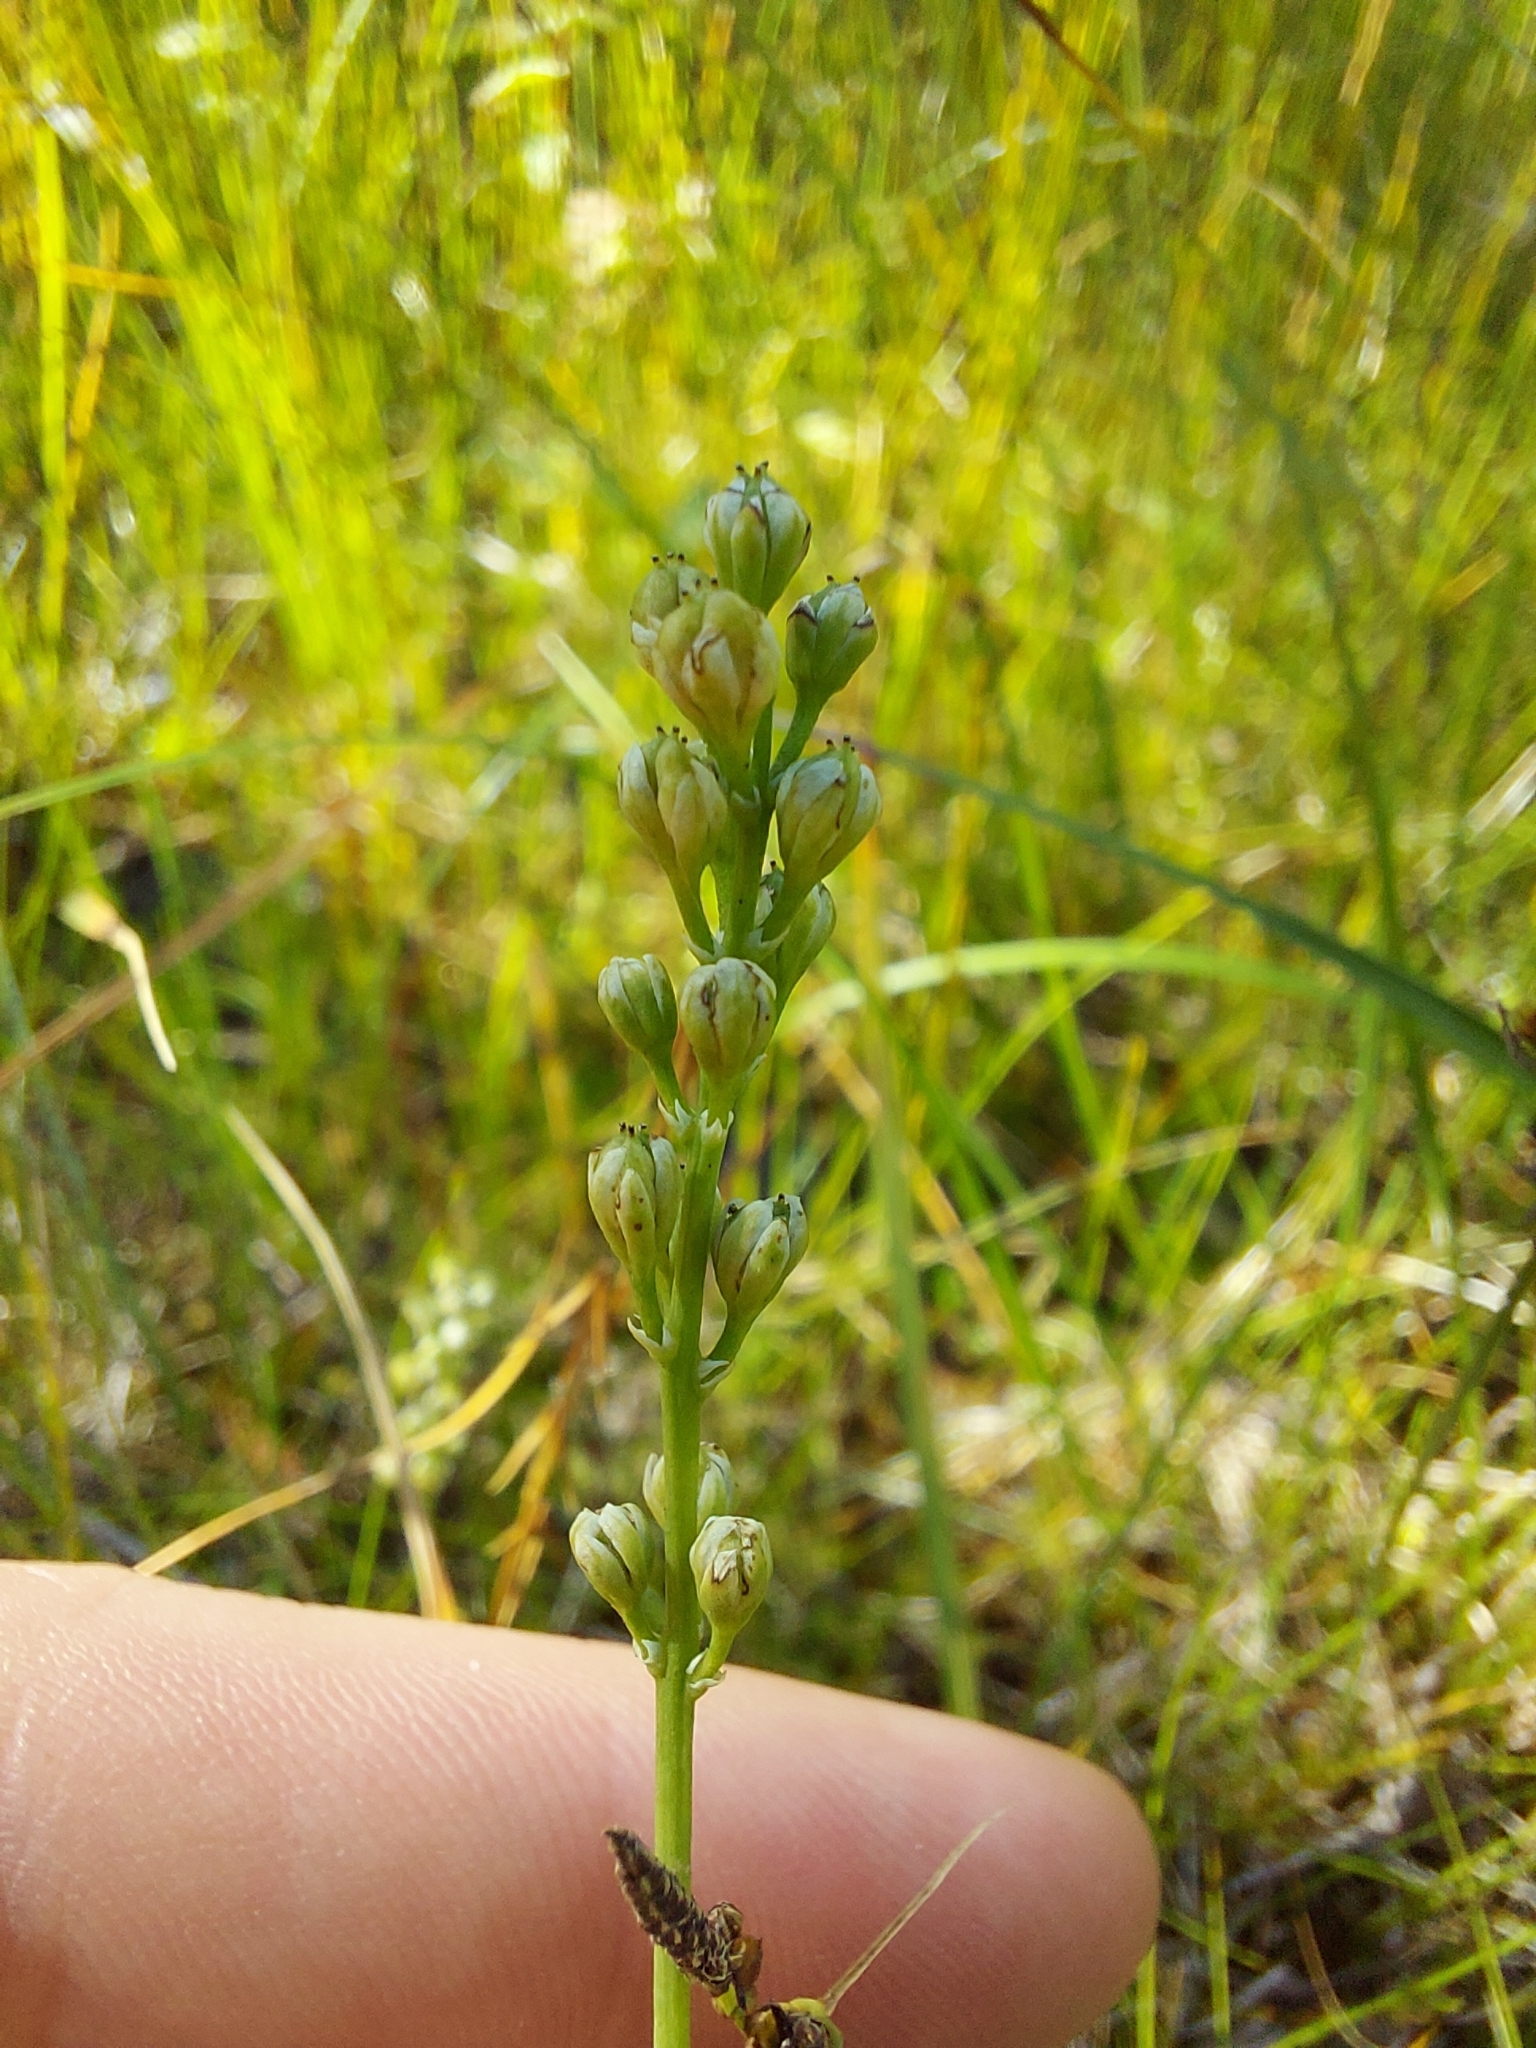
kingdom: Plantae
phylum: Tracheophyta
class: Liliopsida
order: Alismatales
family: Tofieldiaceae
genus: Tofieldia
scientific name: Tofieldia pusilla
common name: Scottish false asphodel
